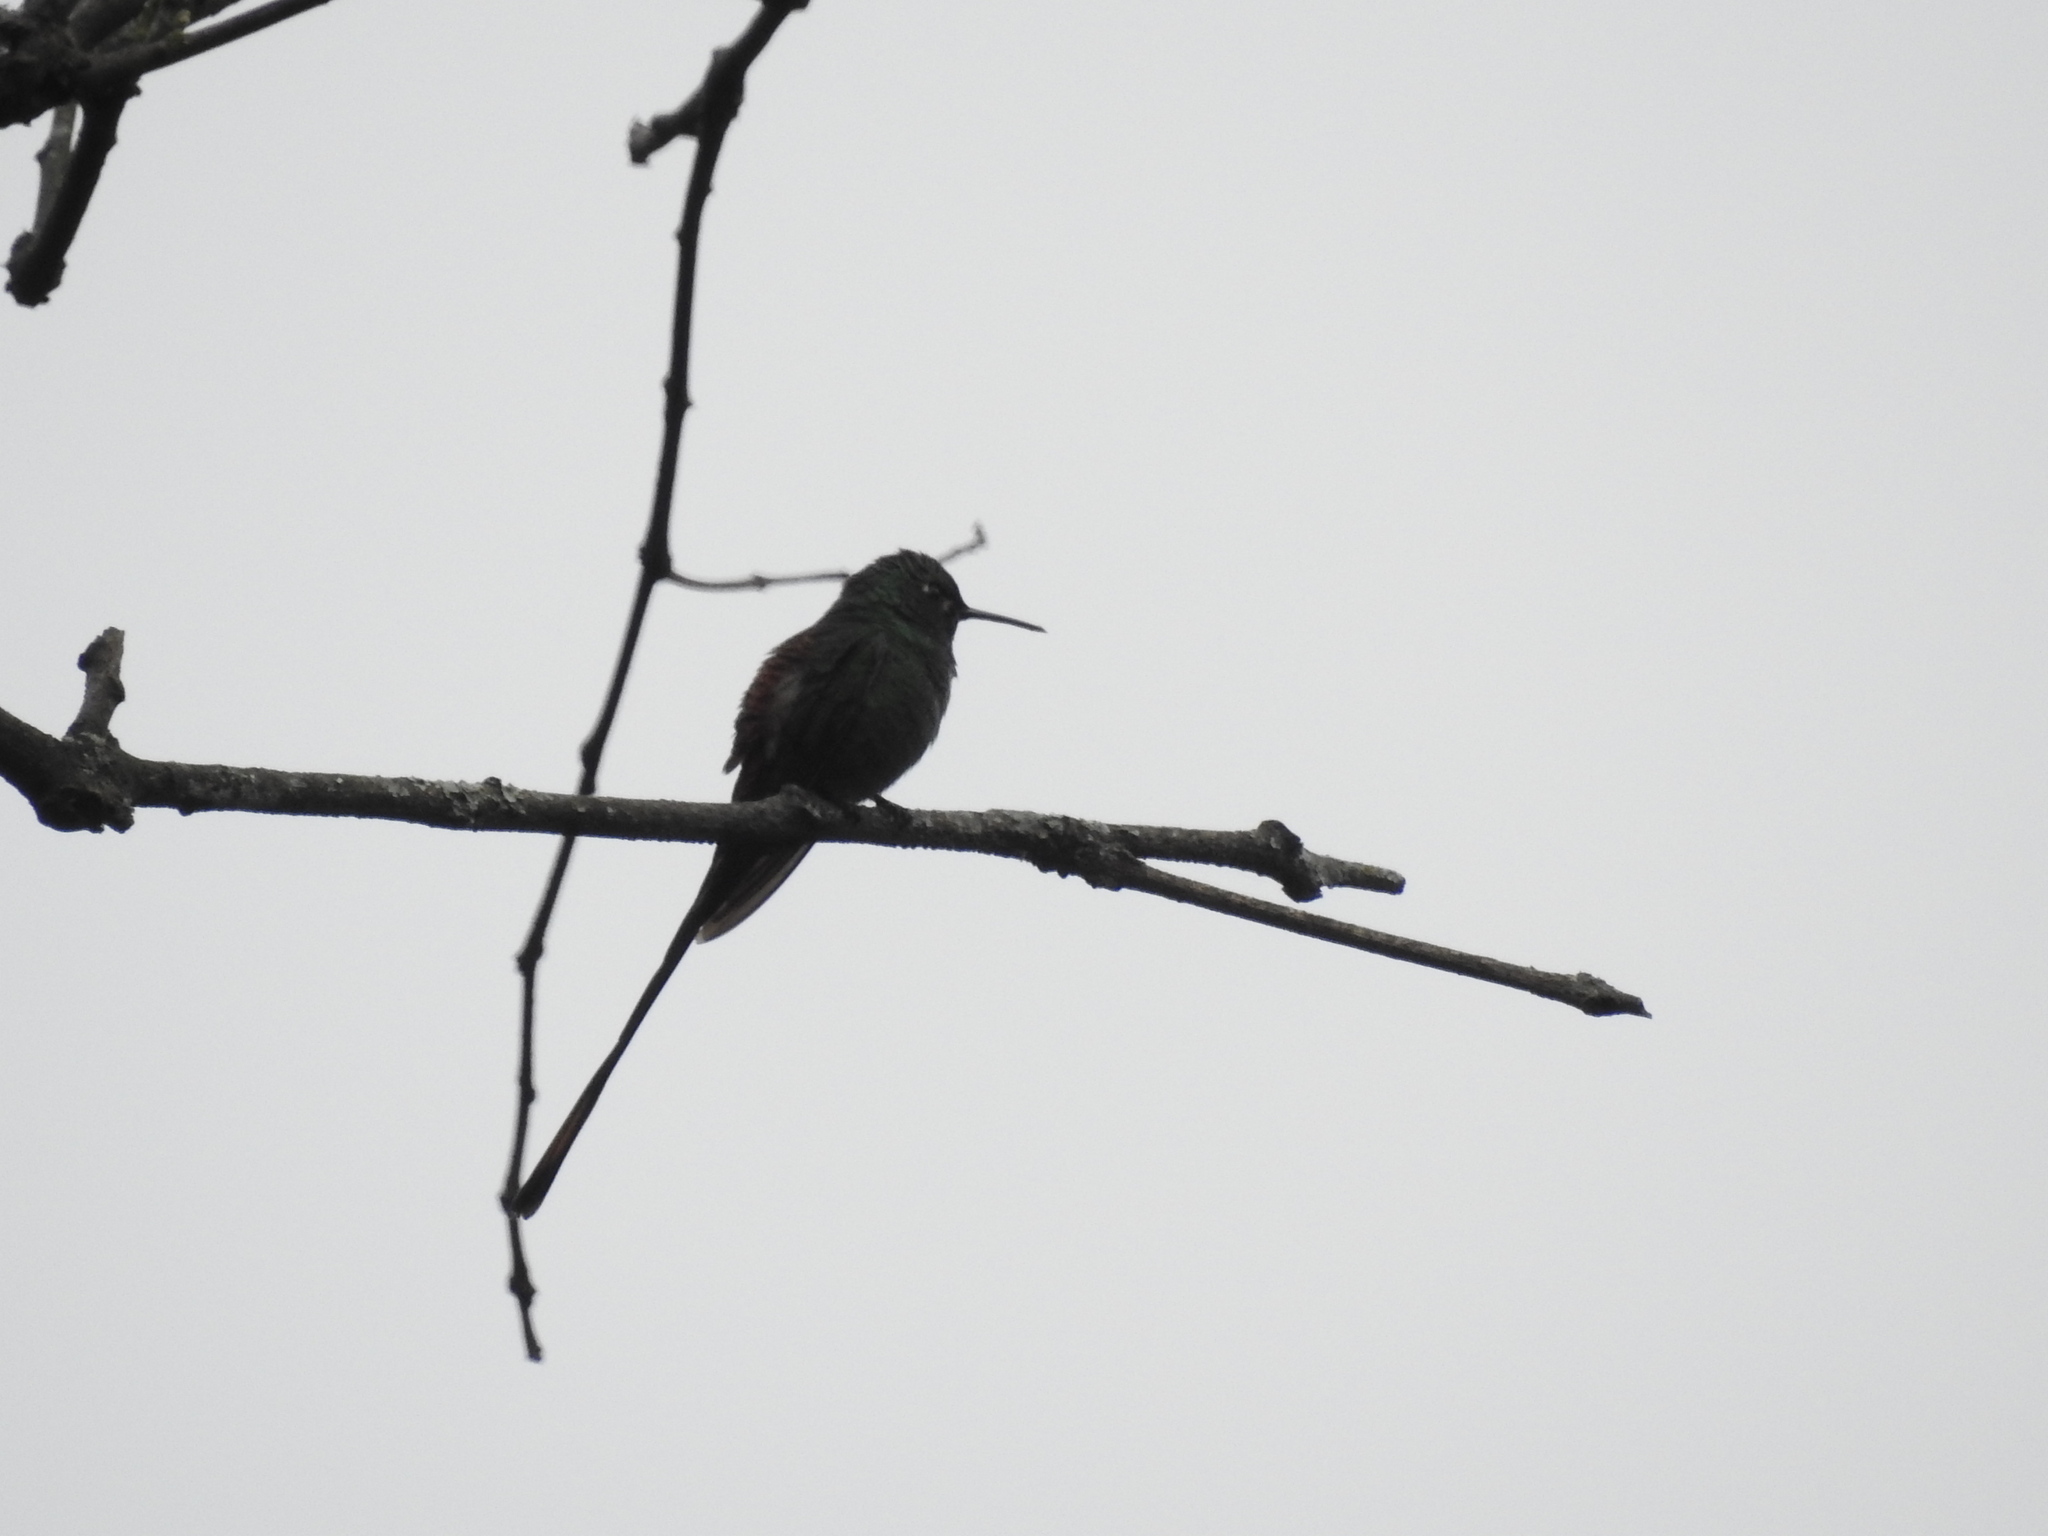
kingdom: Animalia
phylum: Chordata
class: Aves
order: Apodiformes
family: Trochilidae
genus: Sappho
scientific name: Sappho sparganurus
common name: Red-tailed comet
